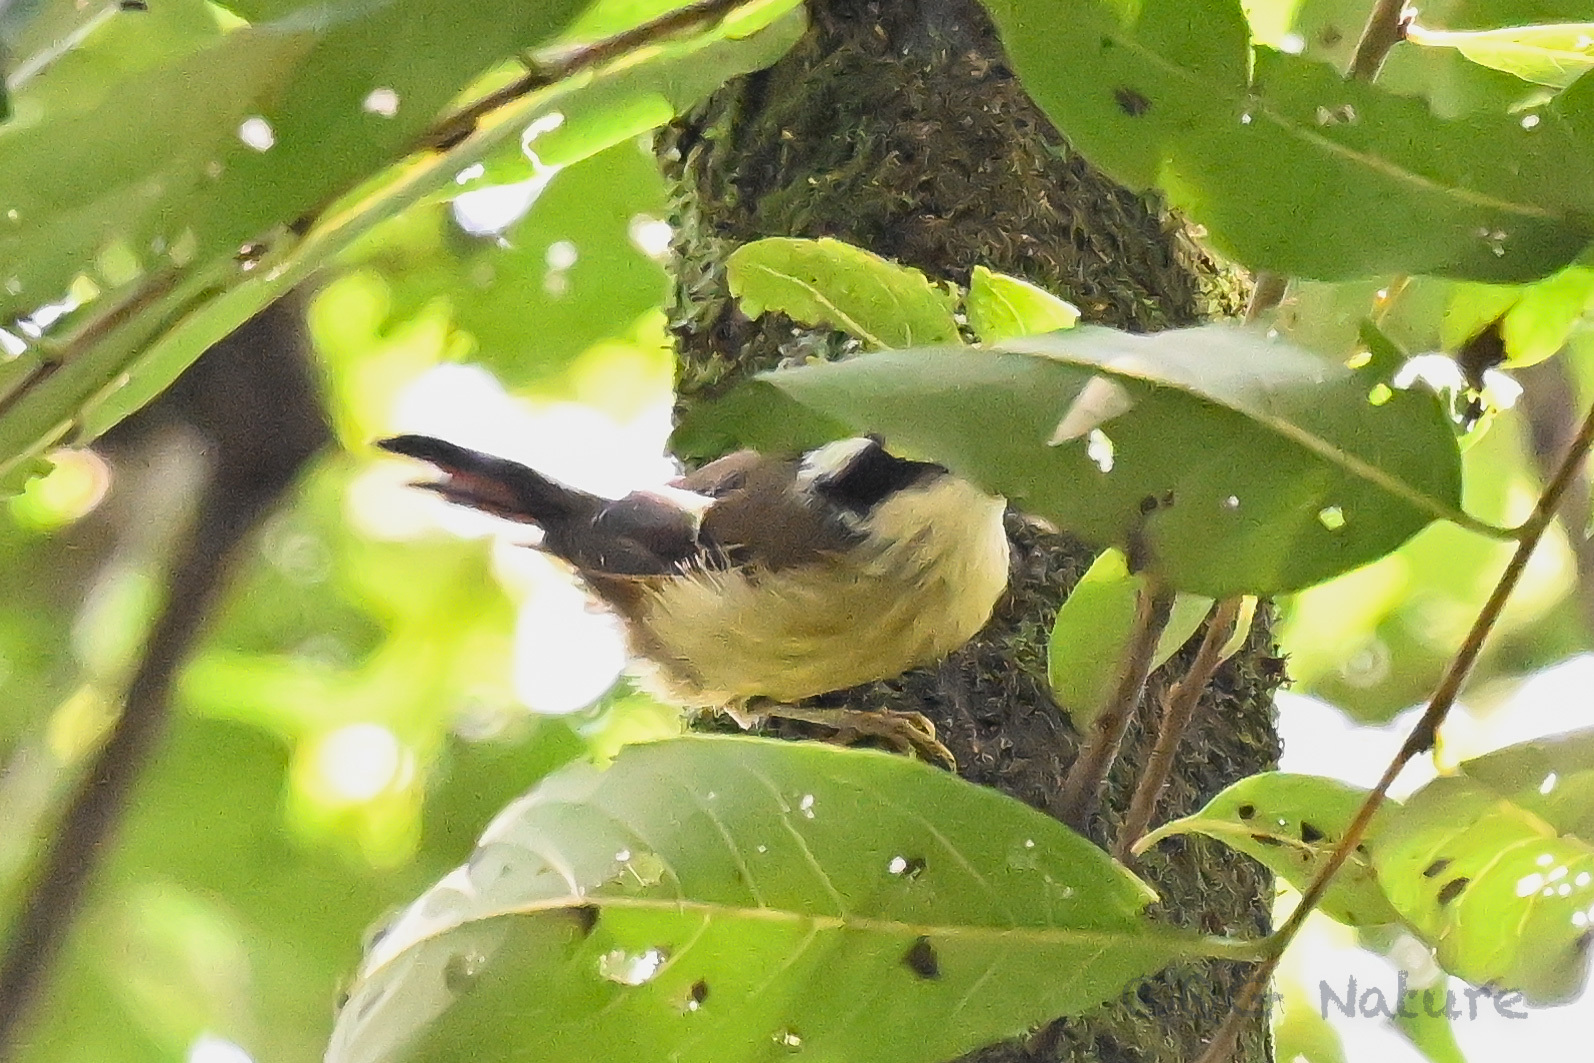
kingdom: Animalia
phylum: Chordata
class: Aves
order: Passeriformes
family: Leiothrichidae
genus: Minla
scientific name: Minla ignotincta
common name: Red-tailed minla
